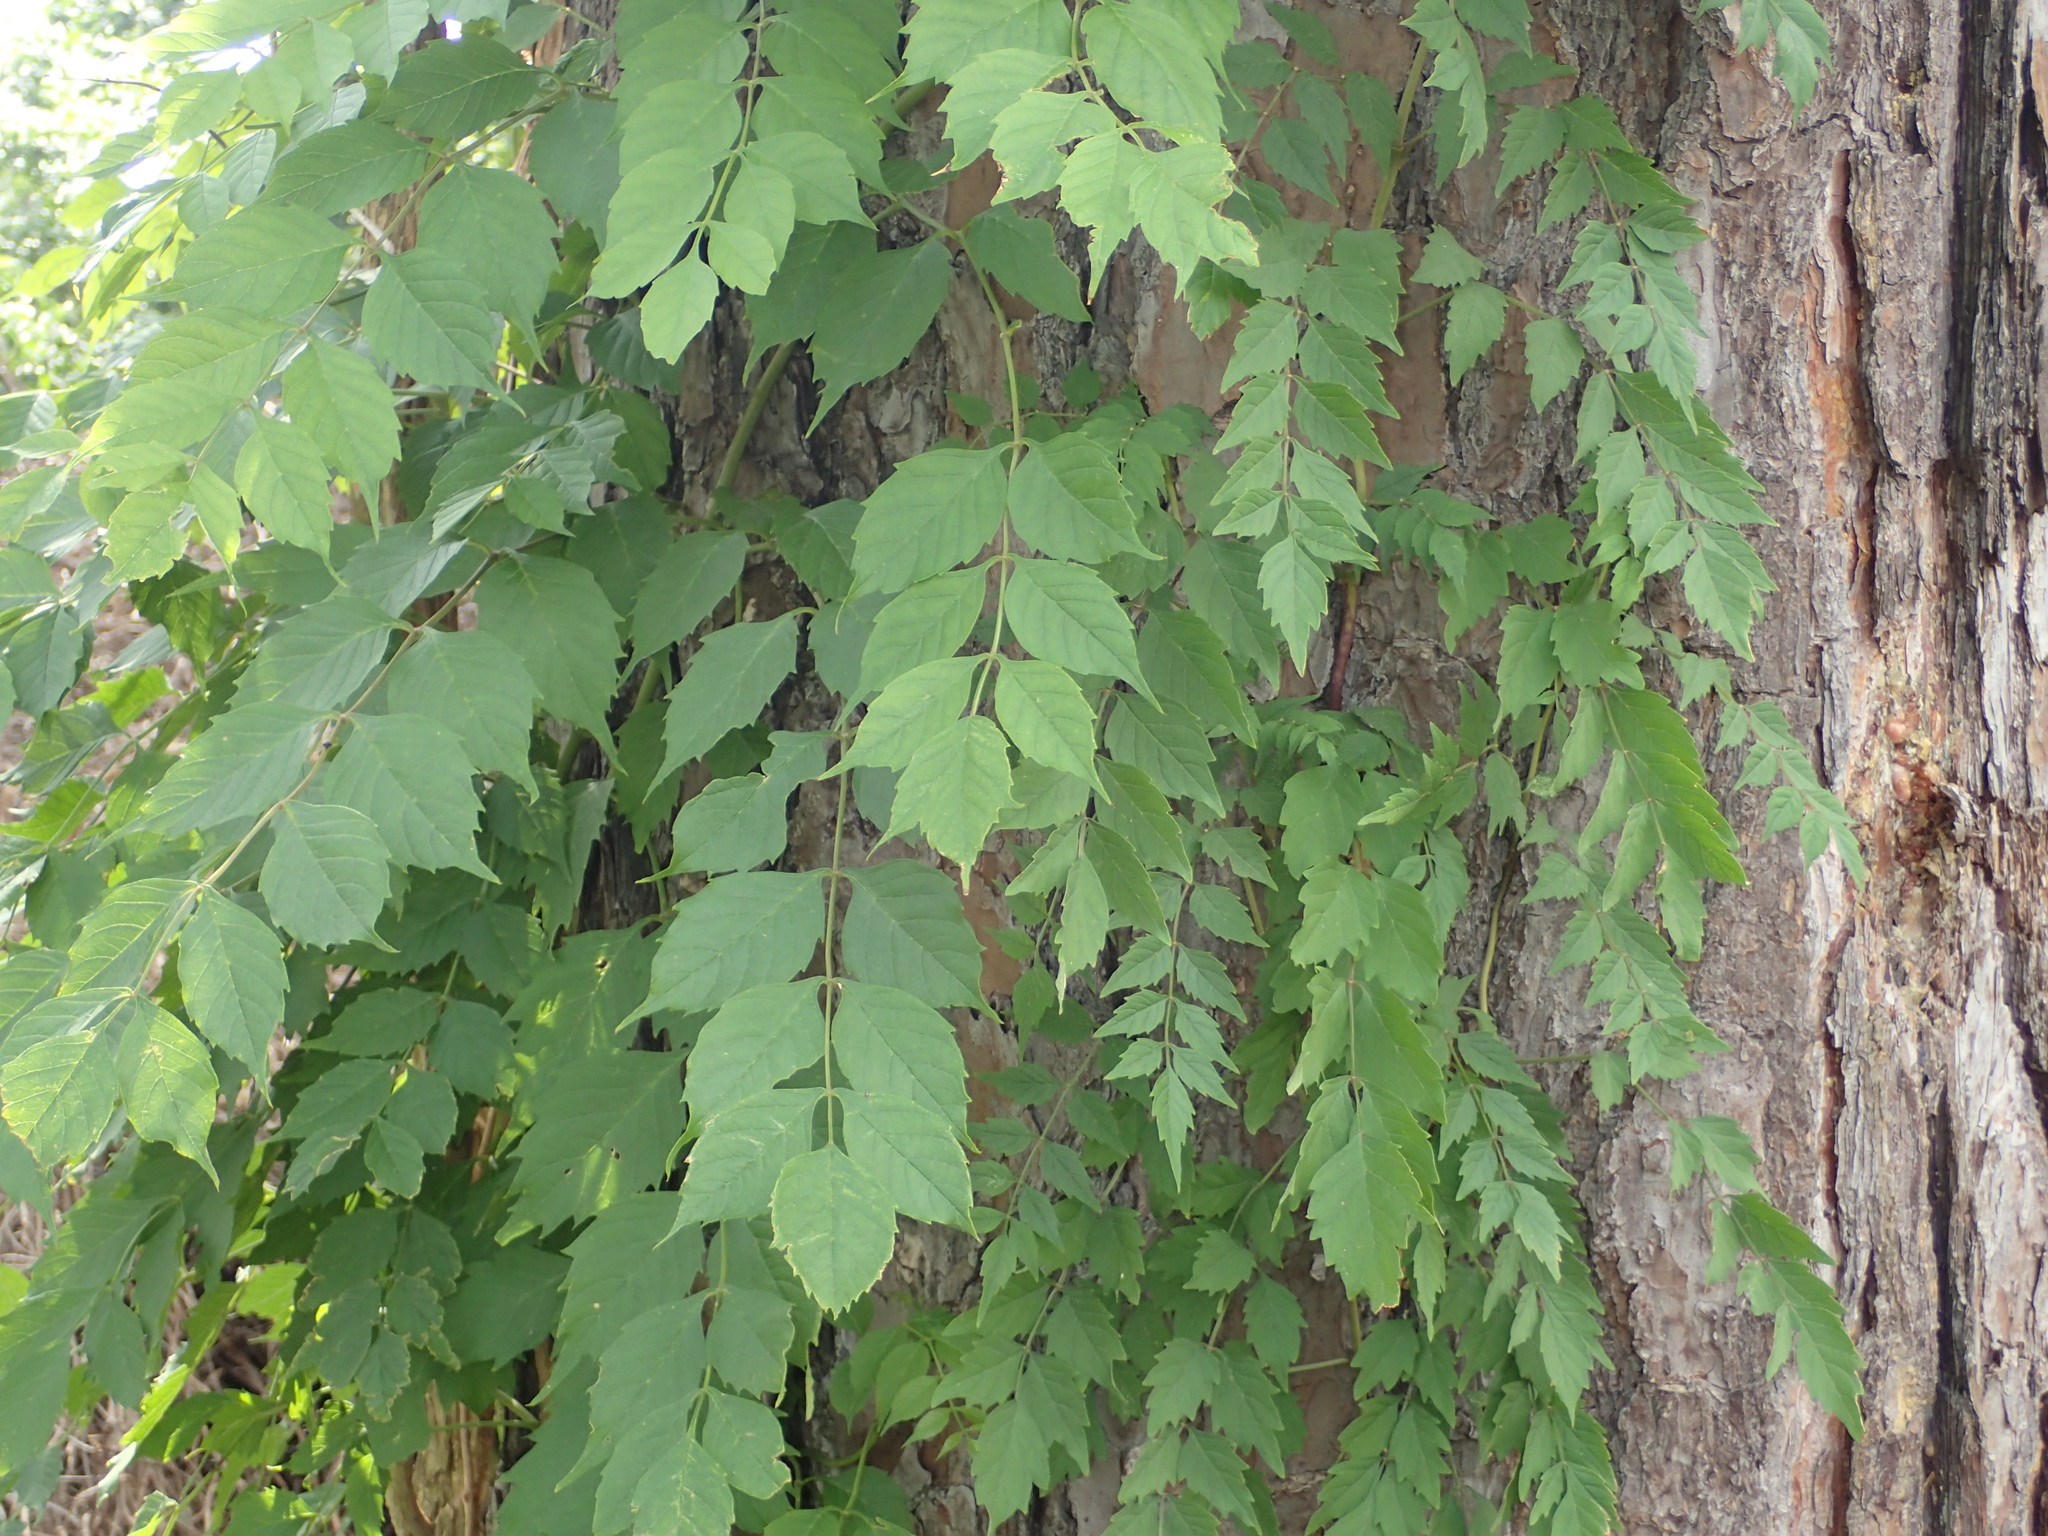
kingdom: Plantae
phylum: Tracheophyta
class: Magnoliopsida
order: Lamiales
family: Bignoniaceae
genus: Campsis
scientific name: Campsis radicans
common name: Trumpet-creeper
